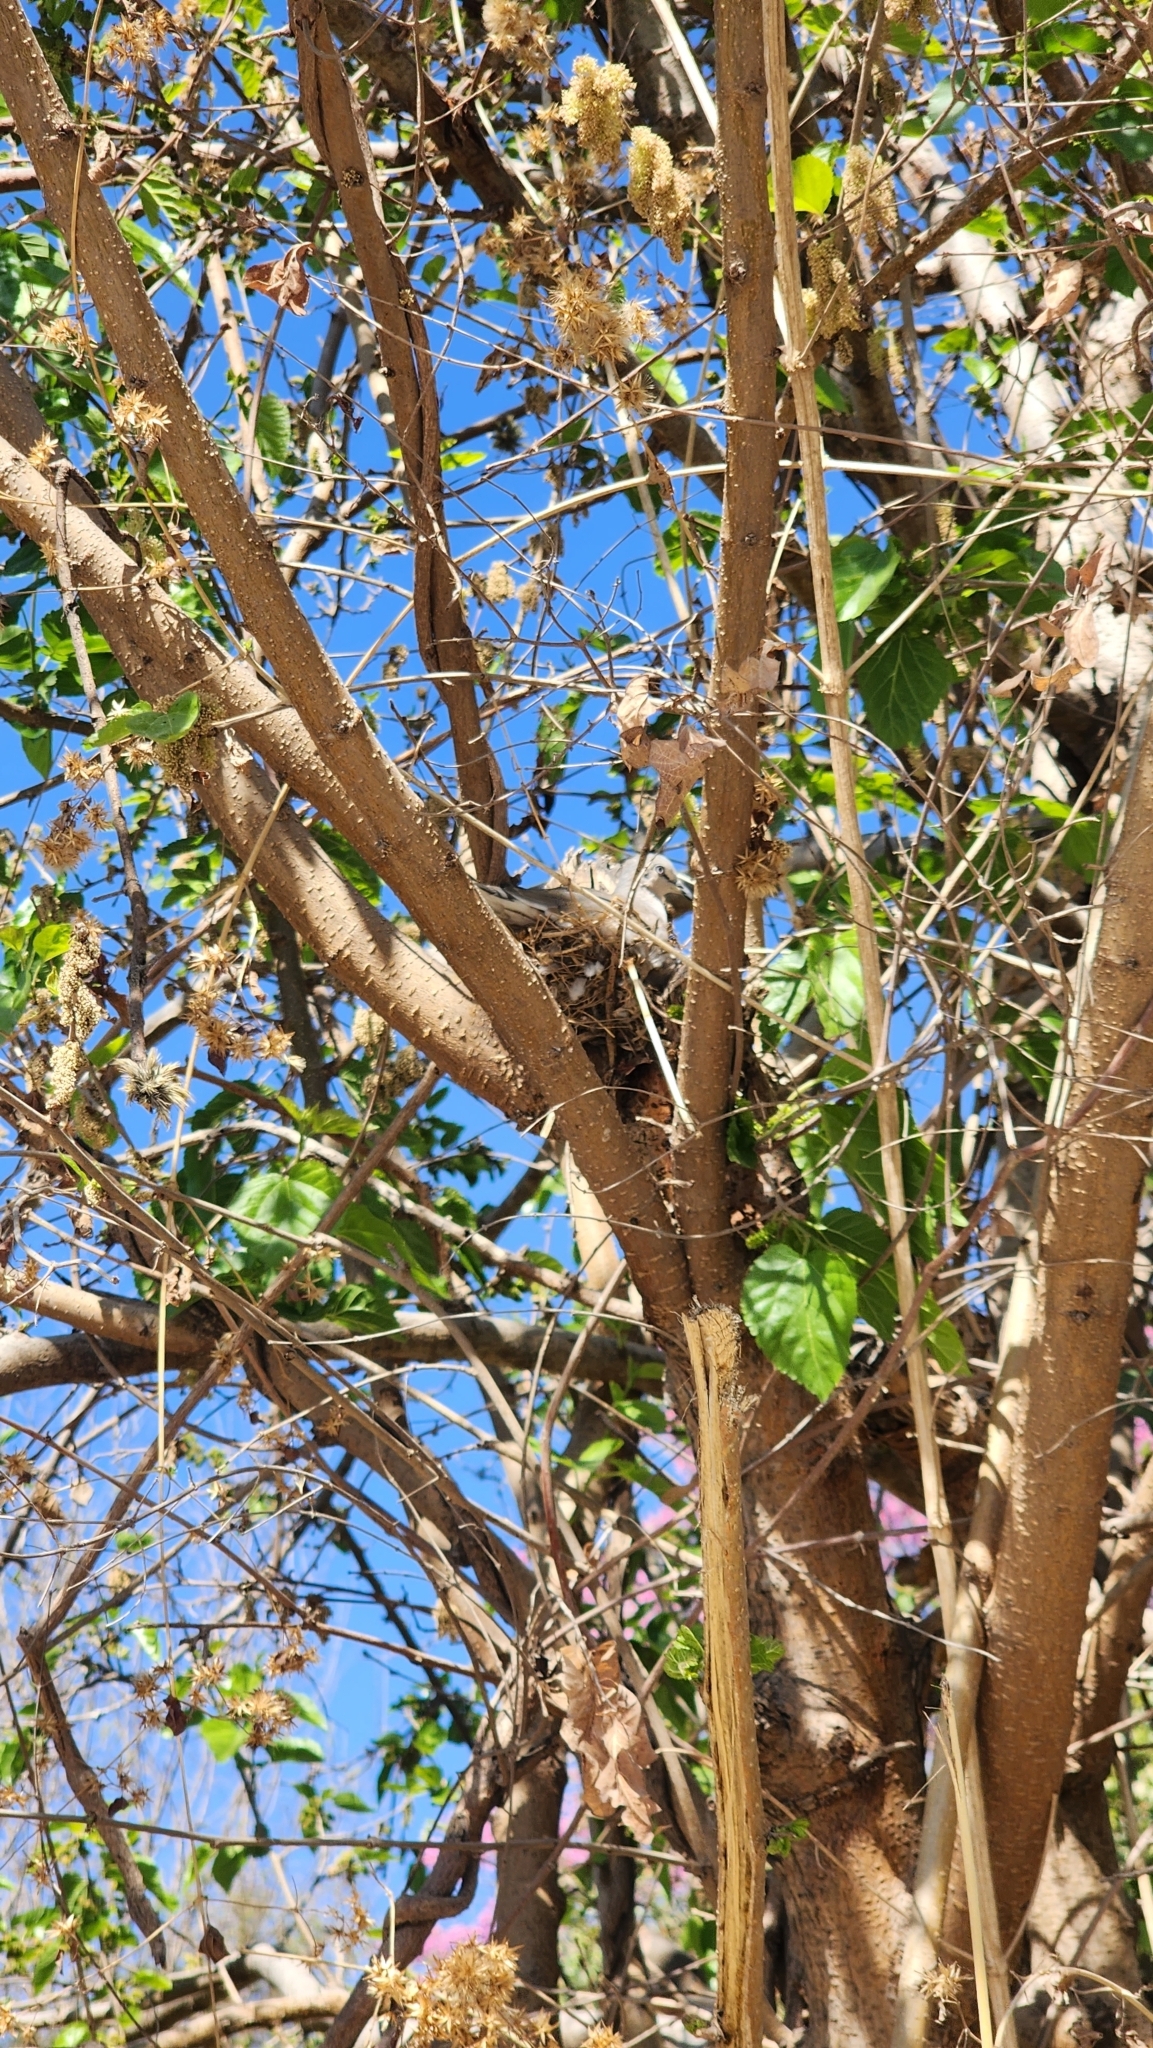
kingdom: Animalia
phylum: Chordata
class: Aves
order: Columbiformes
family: Columbidae
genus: Columbina
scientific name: Columbina picui
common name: Picui ground dove
